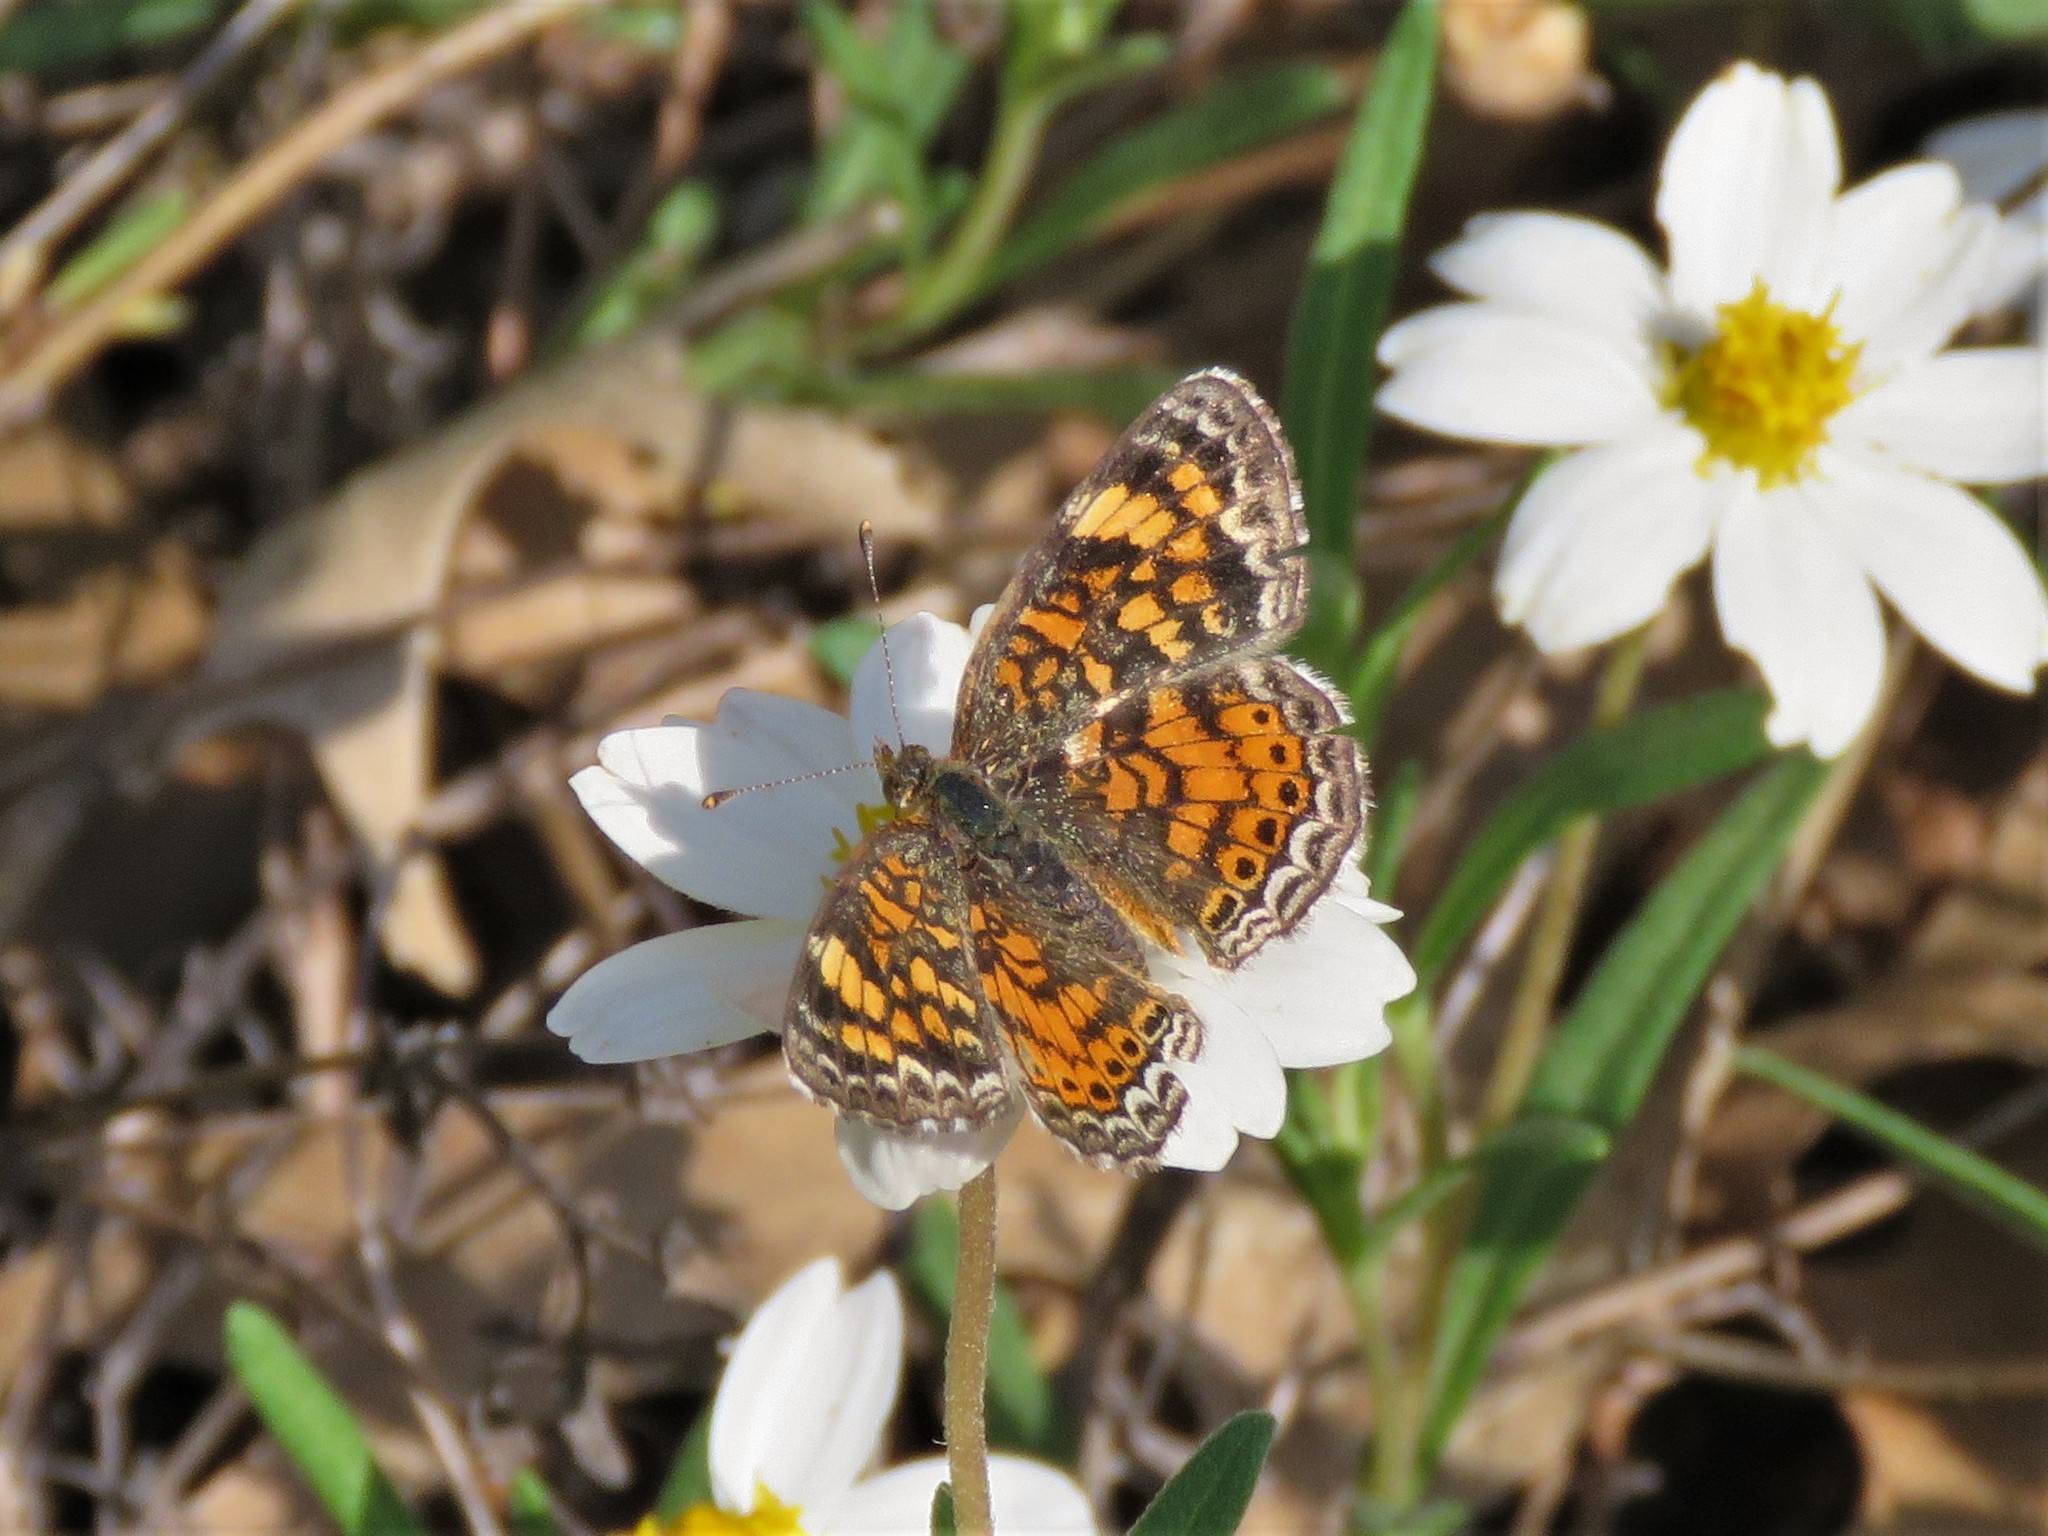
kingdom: Animalia
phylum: Arthropoda
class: Insecta
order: Lepidoptera
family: Nymphalidae
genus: Phyciodes
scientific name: Phyciodes tharos
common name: Pearl crescent
